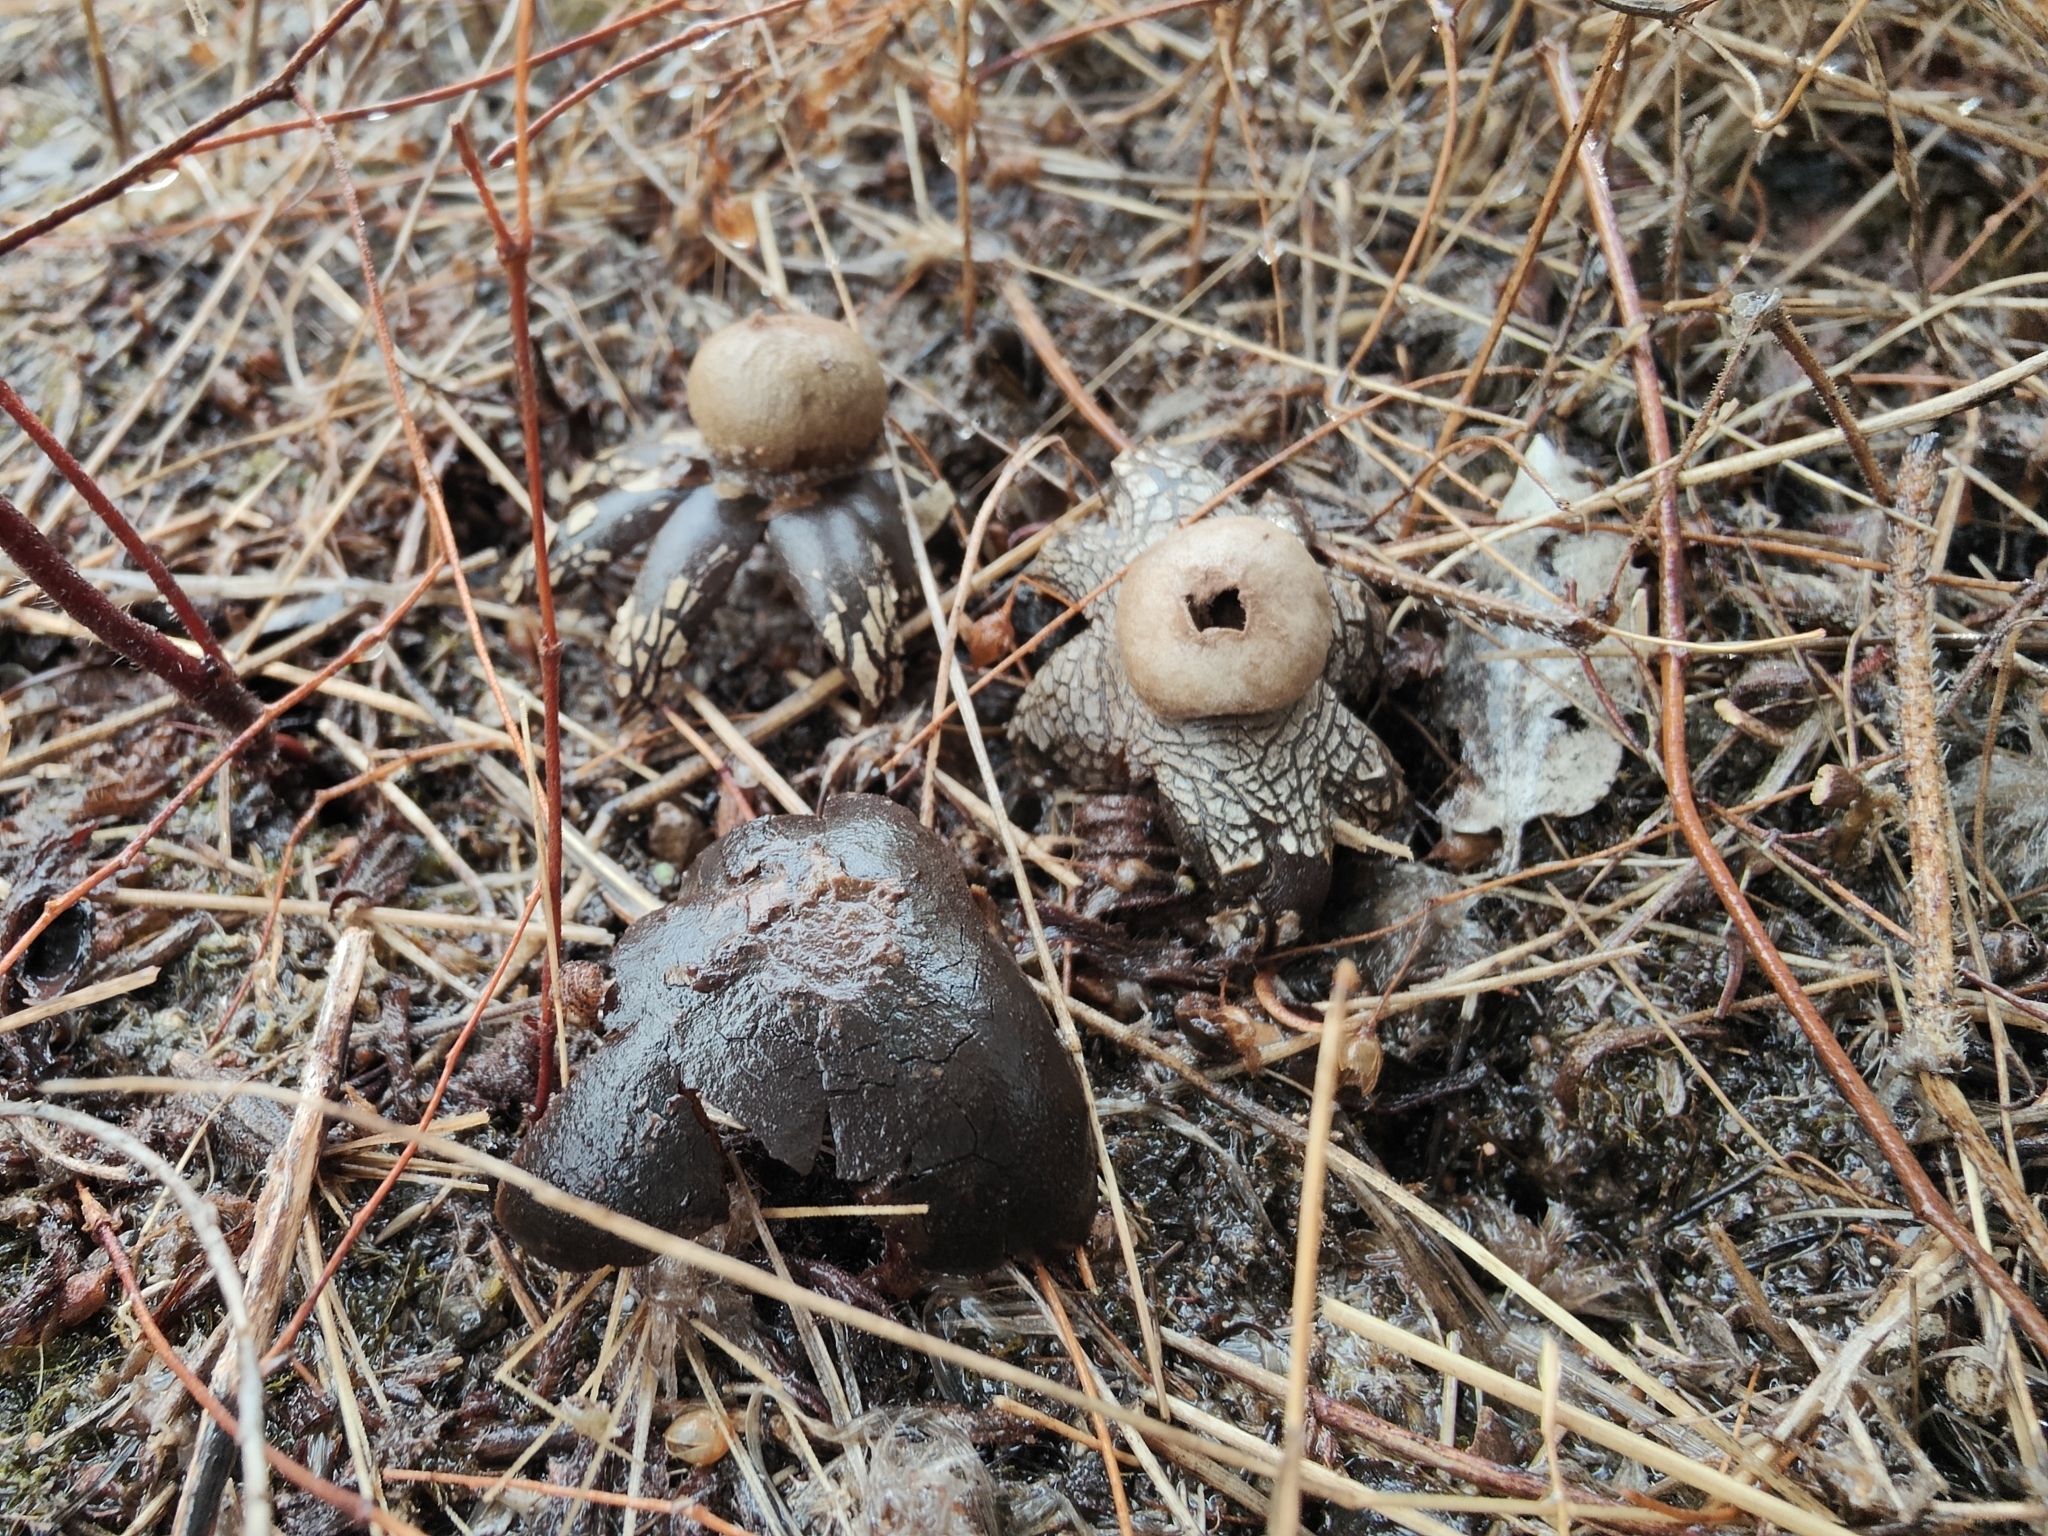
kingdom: Fungi
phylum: Basidiomycota
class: Agaricomycetes
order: Boletales
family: Diplocystidiaceae
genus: Astraeus
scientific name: Astraeus telleriae
